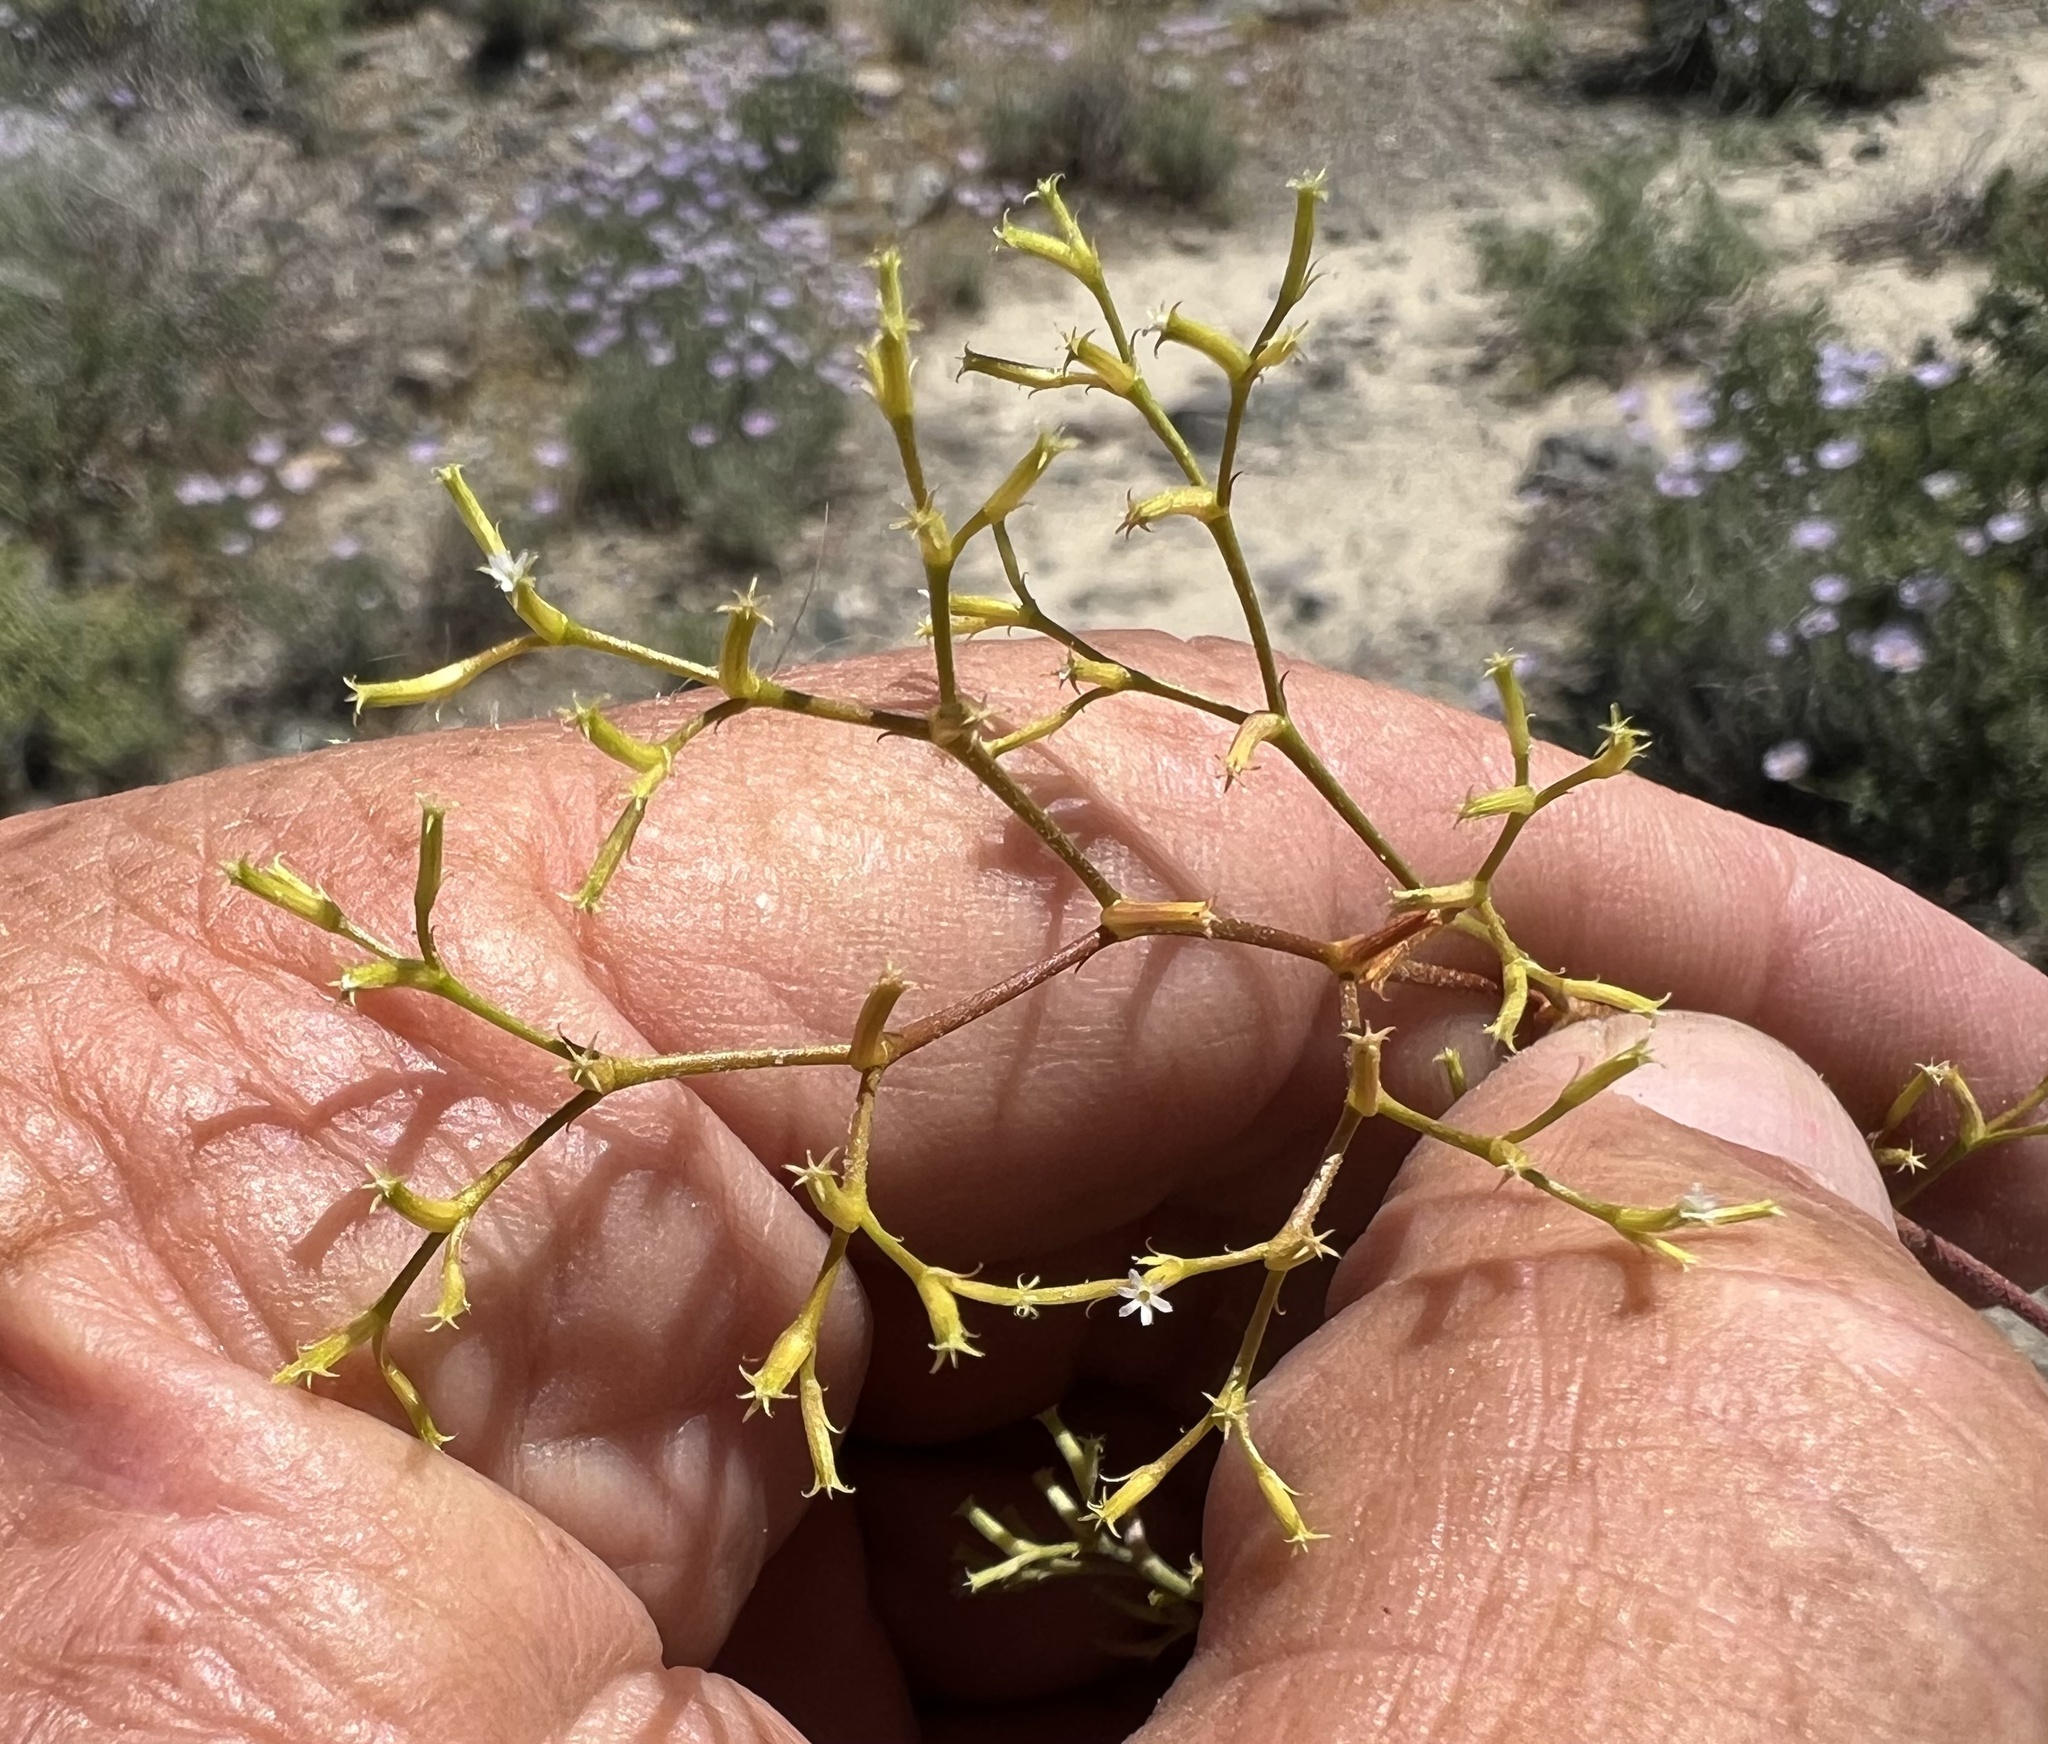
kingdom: Plantae
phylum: Tracheophyta
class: Magnoliopsida
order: Caryophyllales
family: Polygonaceae
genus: Chorizanthe
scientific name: Chorizanthe brevicornu
